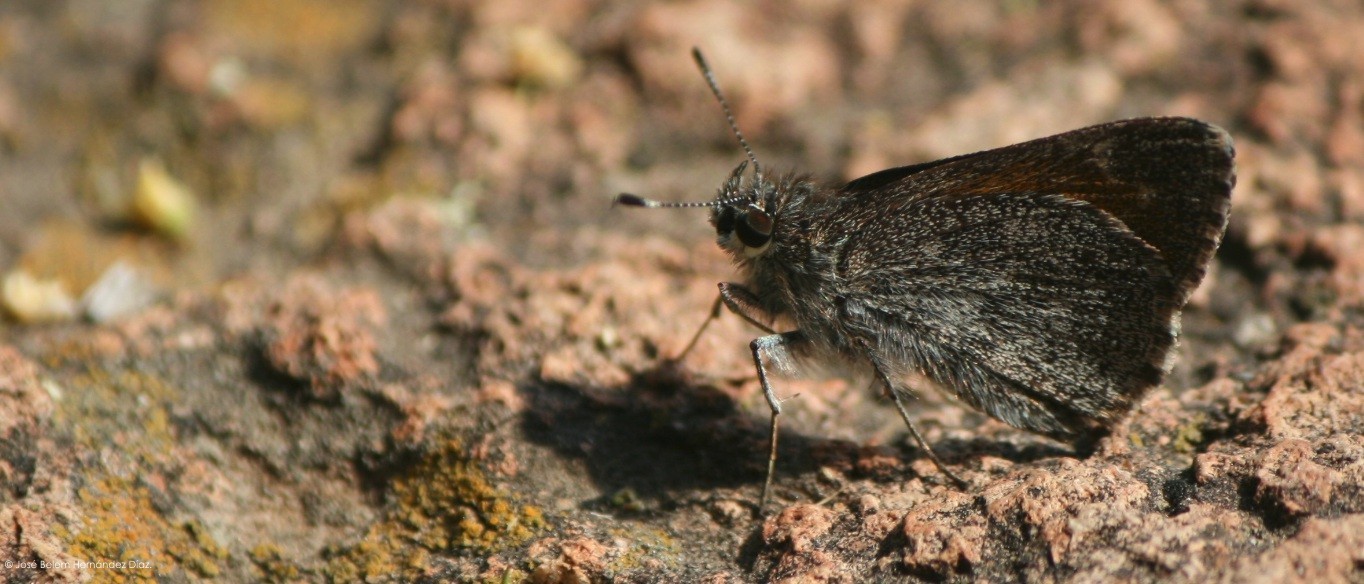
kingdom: Animalia
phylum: Arthropoda
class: Insecta
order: Lepidoptera
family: Hesperiidae
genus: Mastor
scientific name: Mastor fluonia
